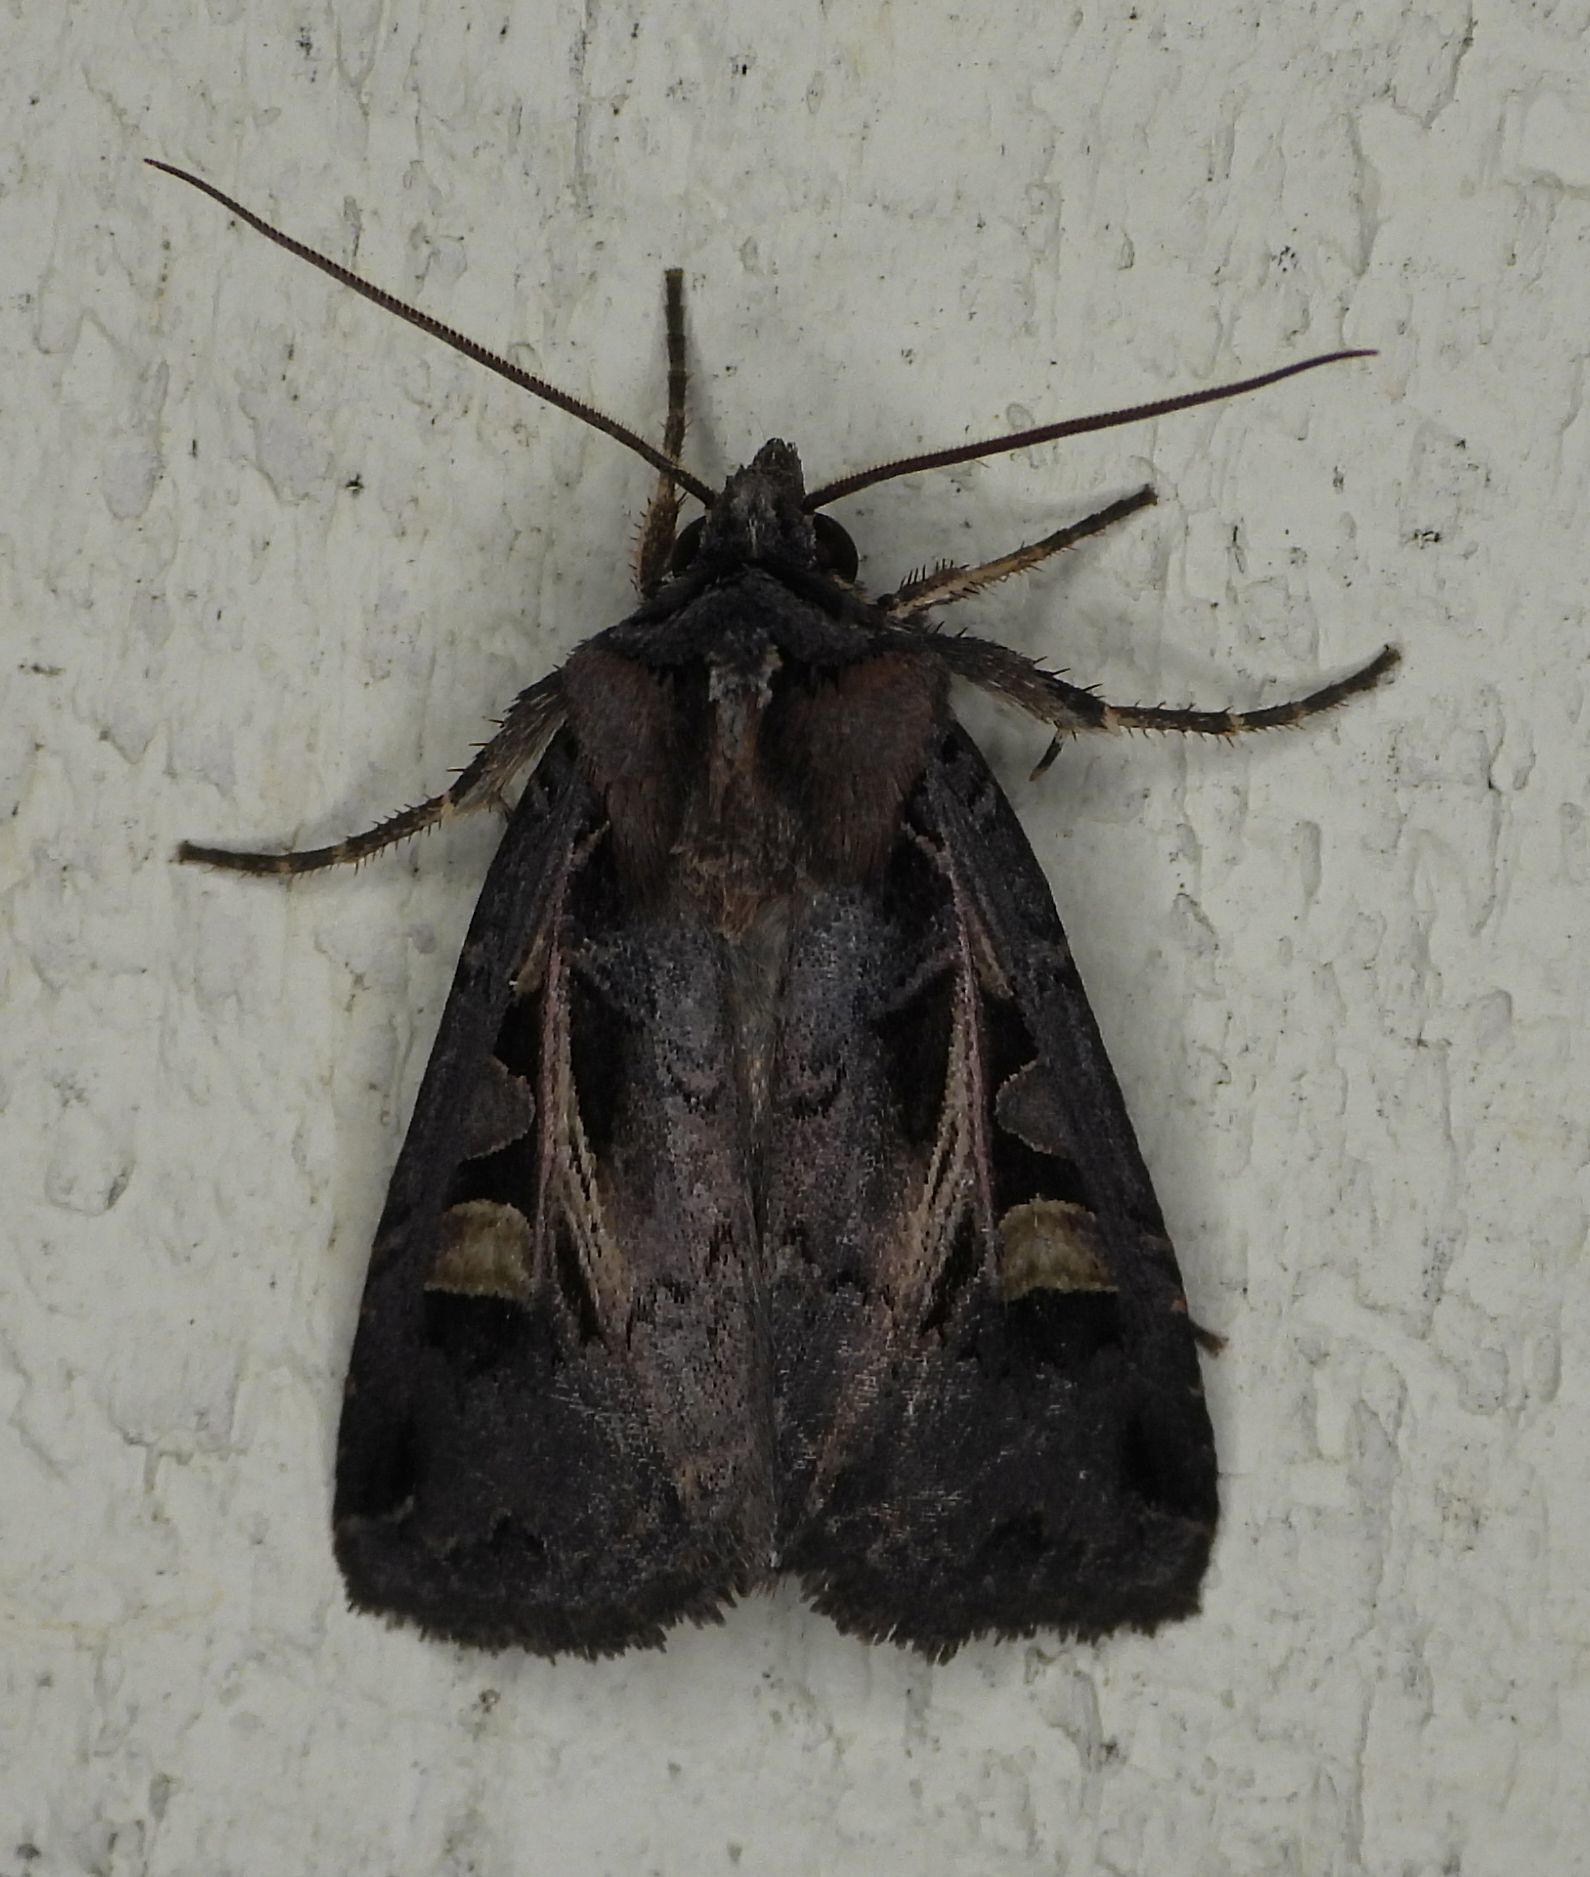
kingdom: Animalia
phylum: Arthropoda
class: Insecta
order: Lepidoptera
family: Noctuidae
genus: Feltia
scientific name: Feltia herilis
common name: Master's dart
